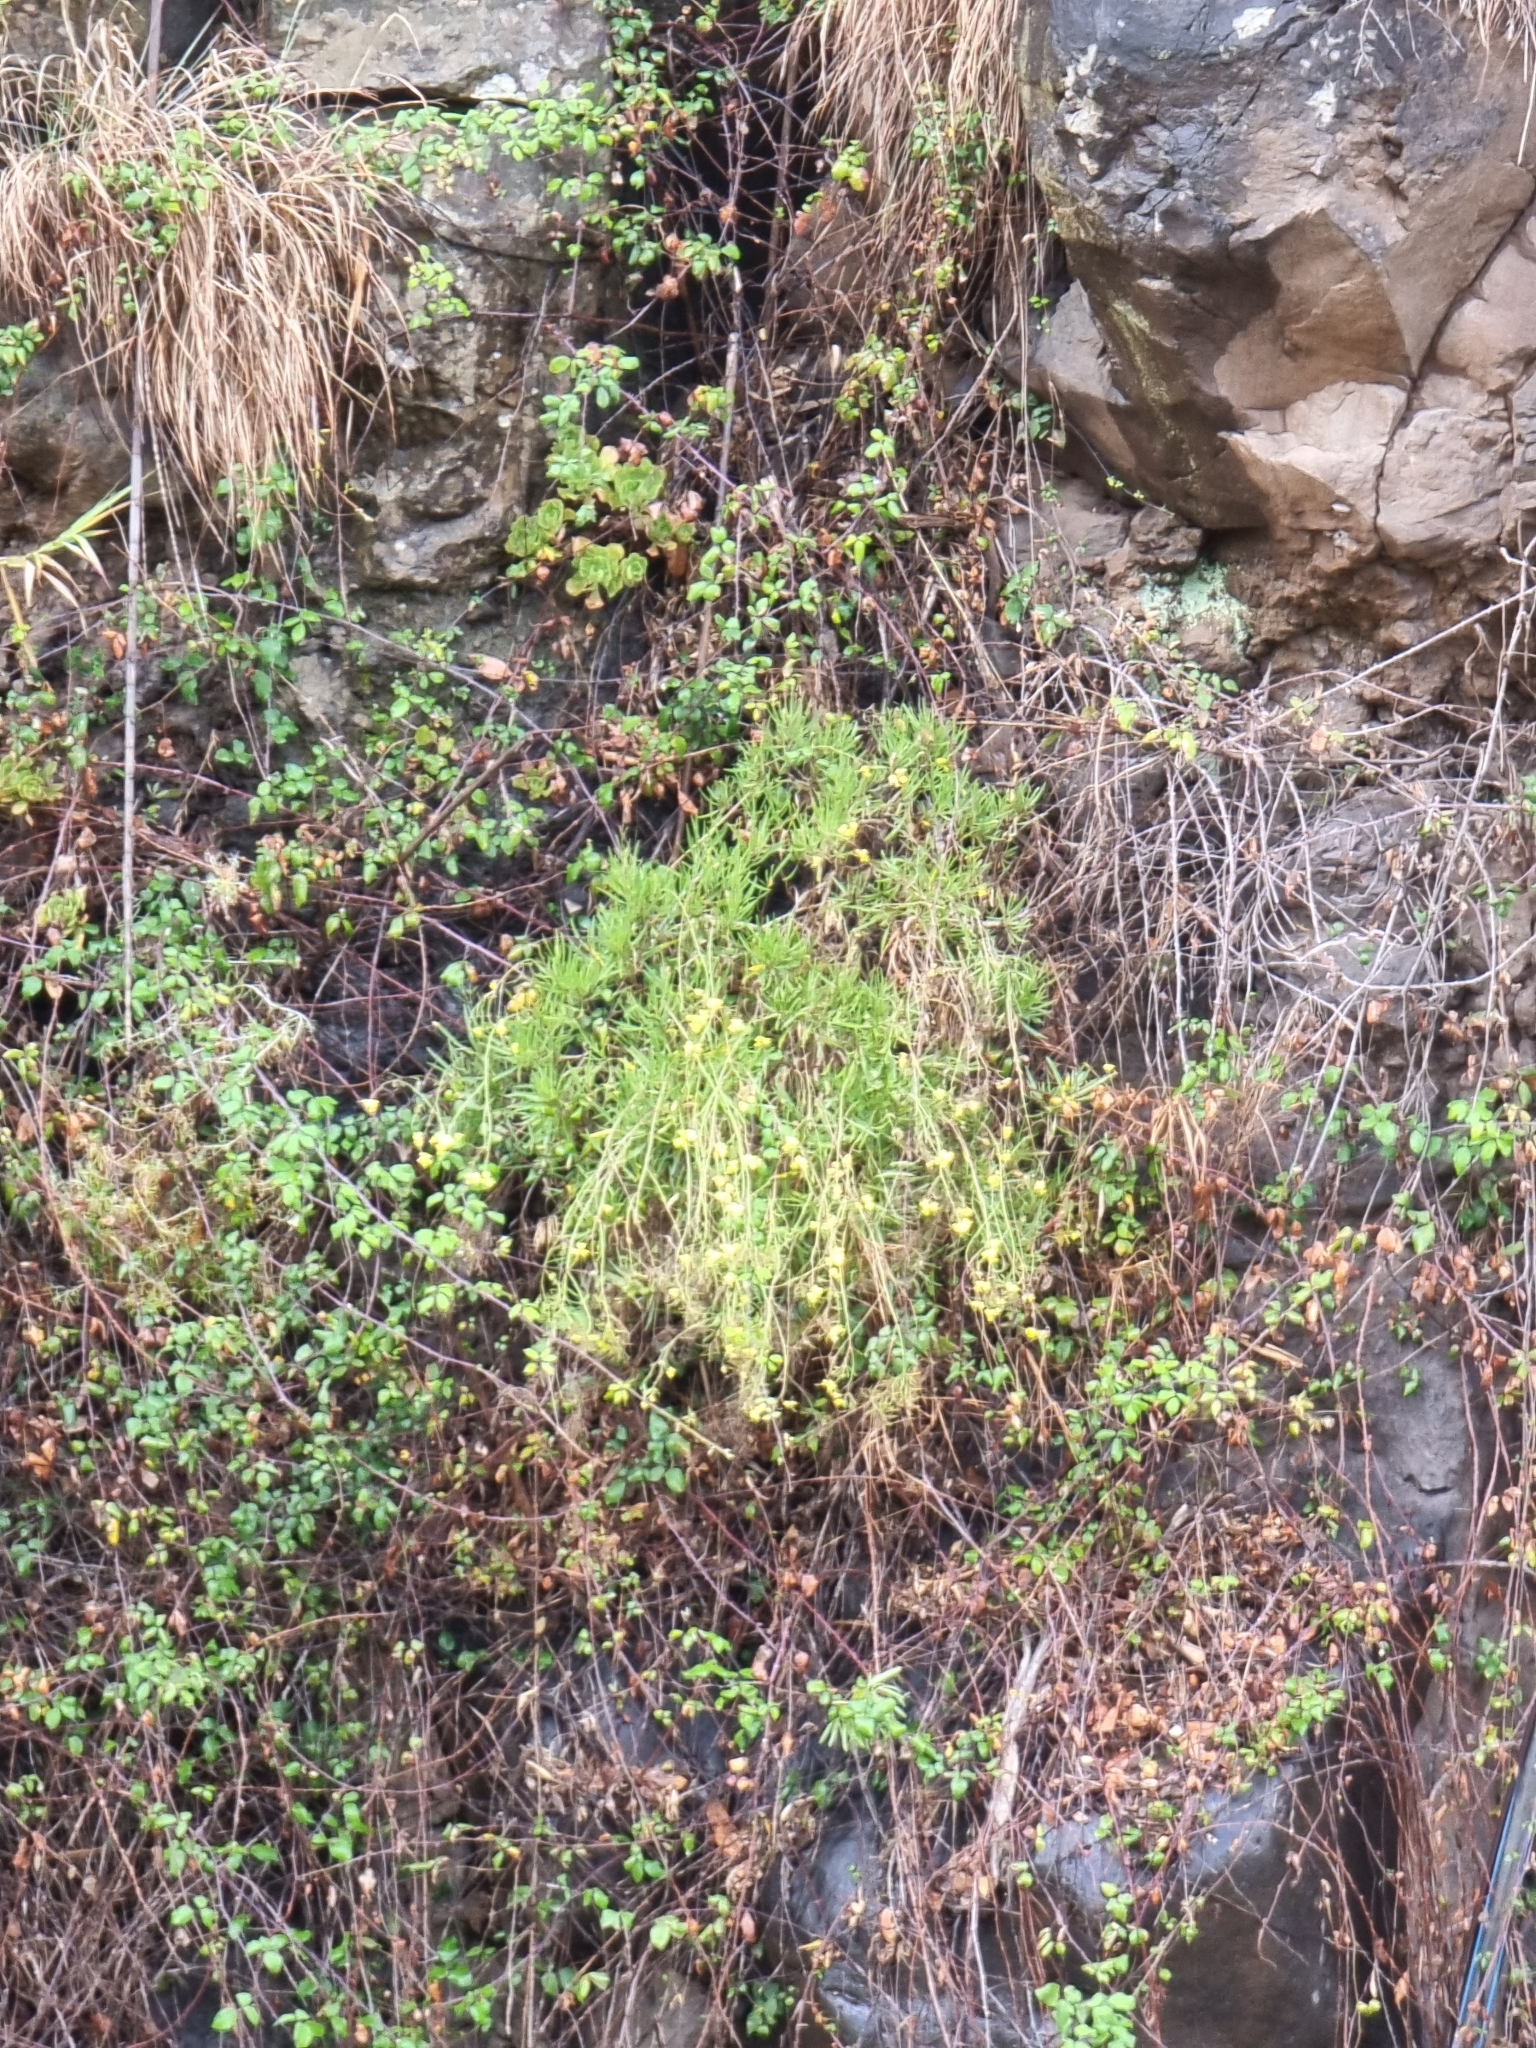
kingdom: Plantae
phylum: Tracheophyta
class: Magnoliopsida
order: Brassicales
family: Brassicaceae
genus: Sinapidendron
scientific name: Sinapidendron angustifolium
